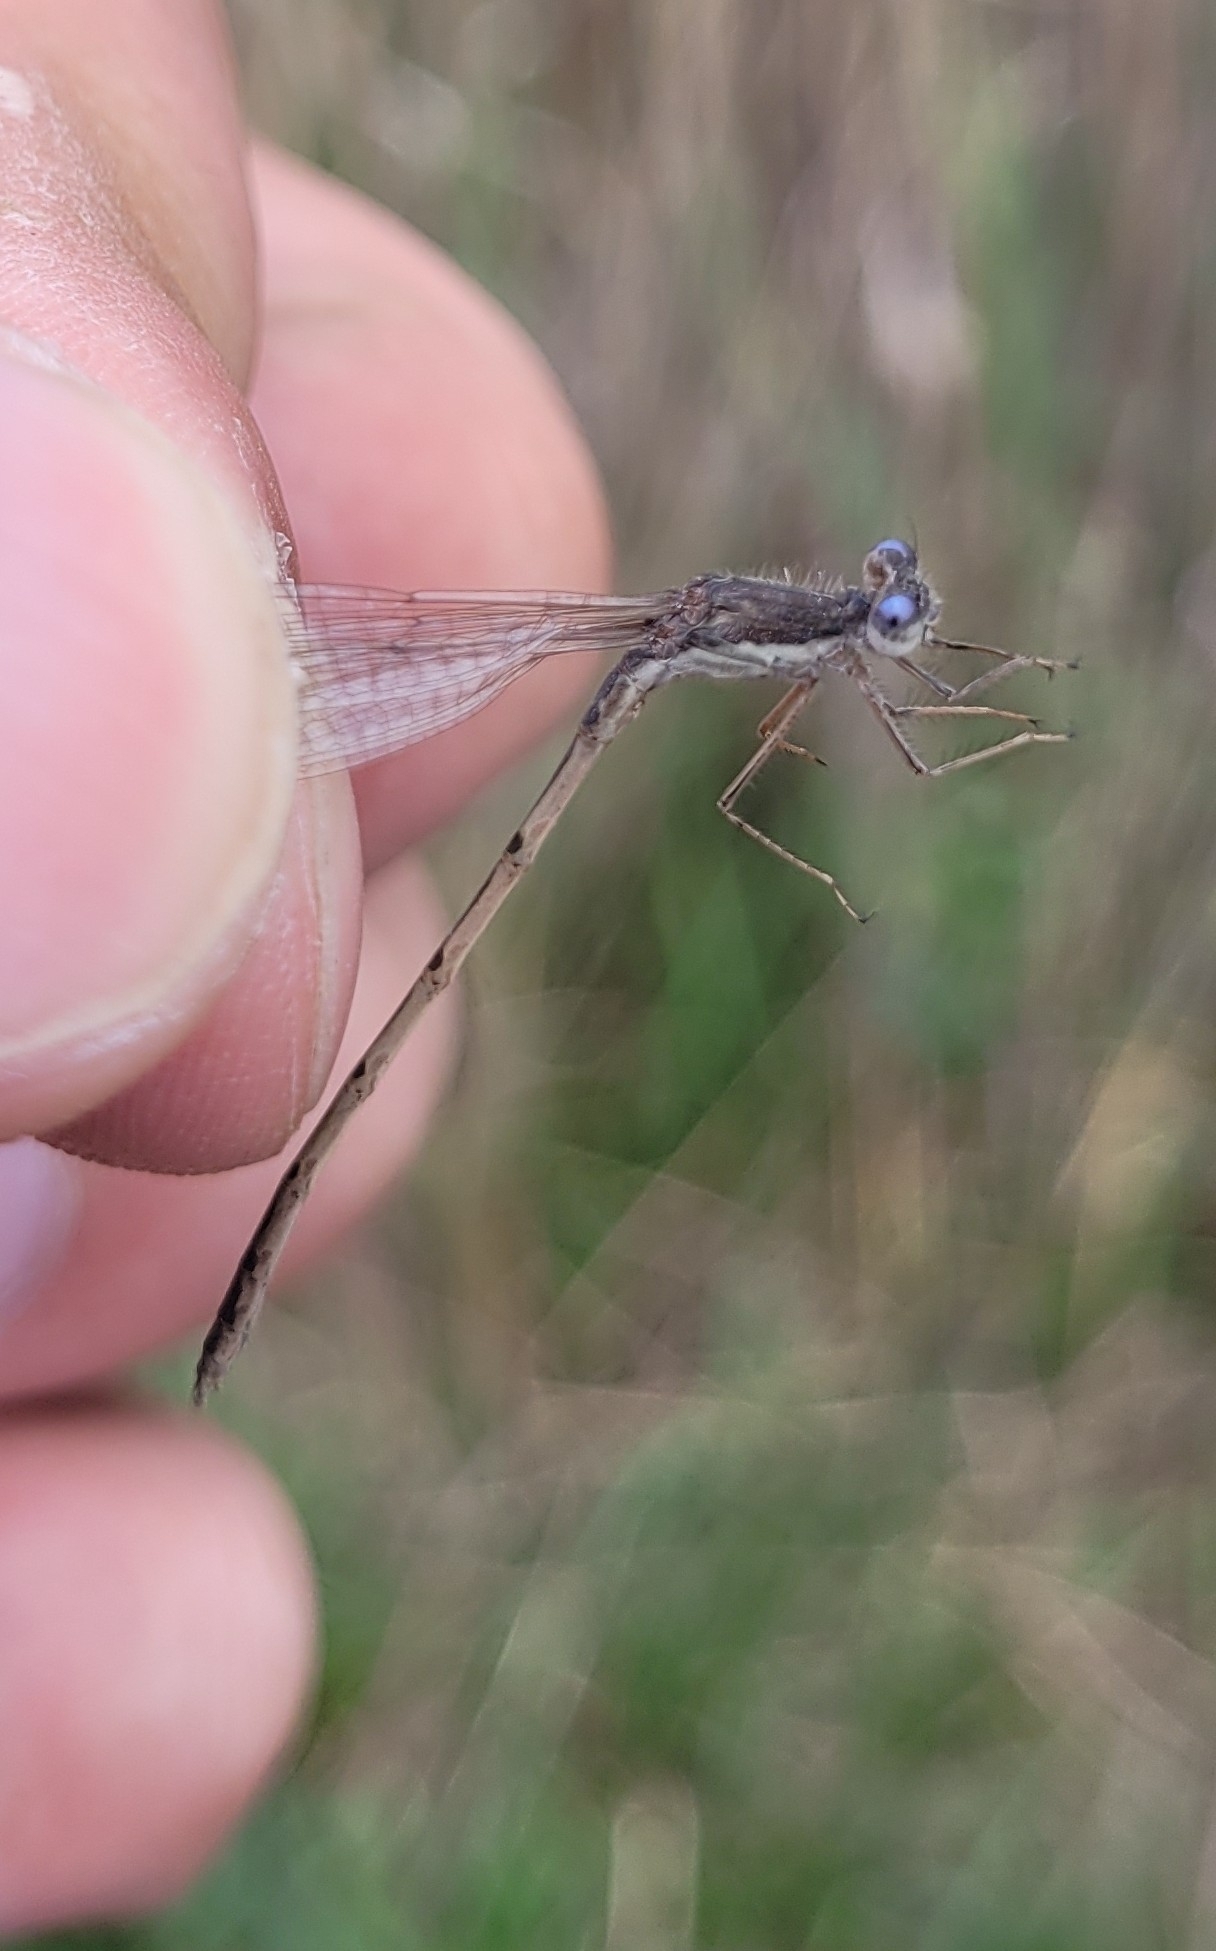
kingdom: Animalia
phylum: Arthropoda
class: Insecta
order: Odonata
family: Lestidae
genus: Sympecma
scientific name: Sympecma fusca
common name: Common winter damsel
